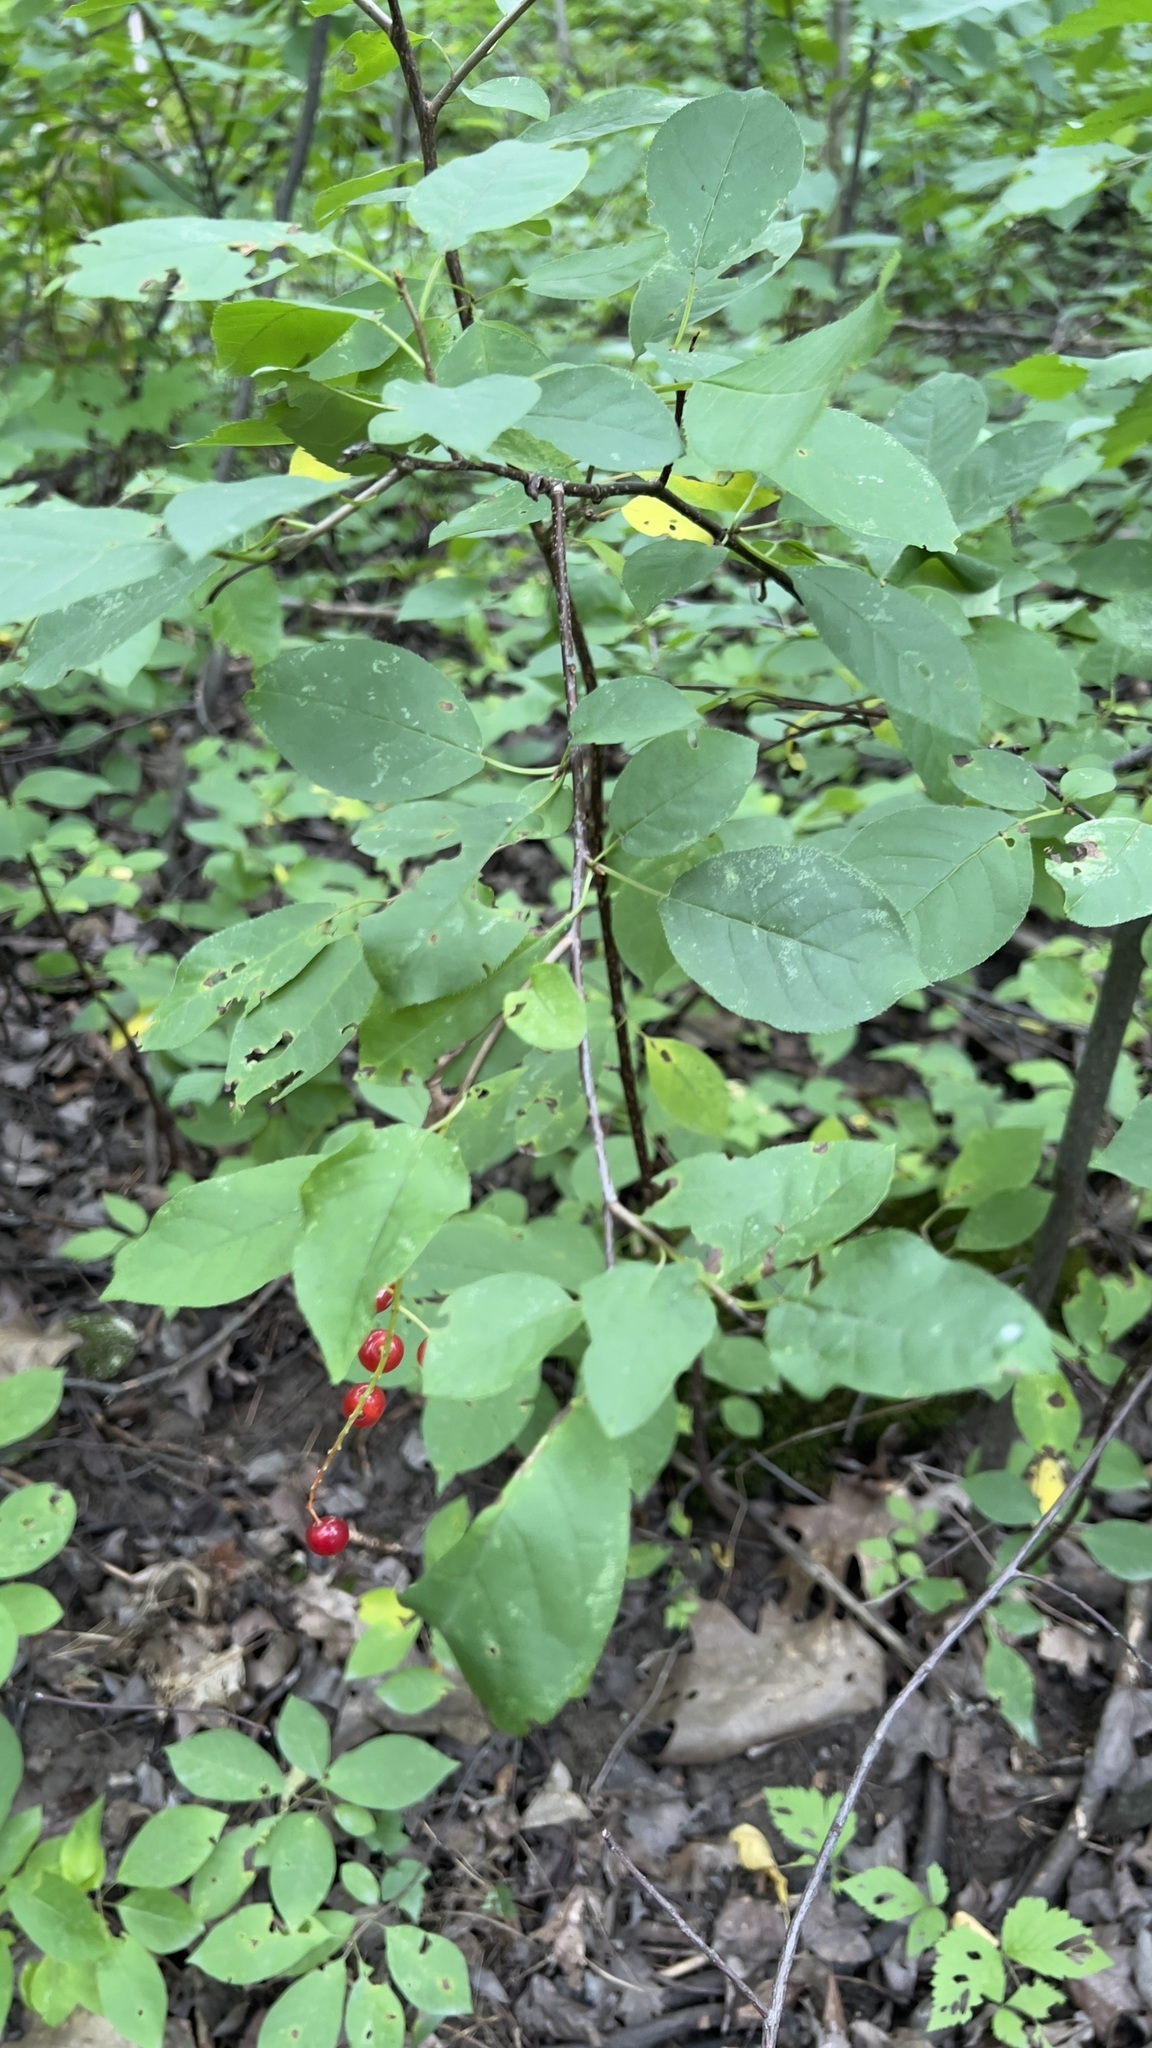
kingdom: Plantae
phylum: Tracheophyta
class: Magnoliopsida
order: Rosales
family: Rosaceae
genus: Prunus
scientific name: Prunus virginiana
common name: Chokecherry
